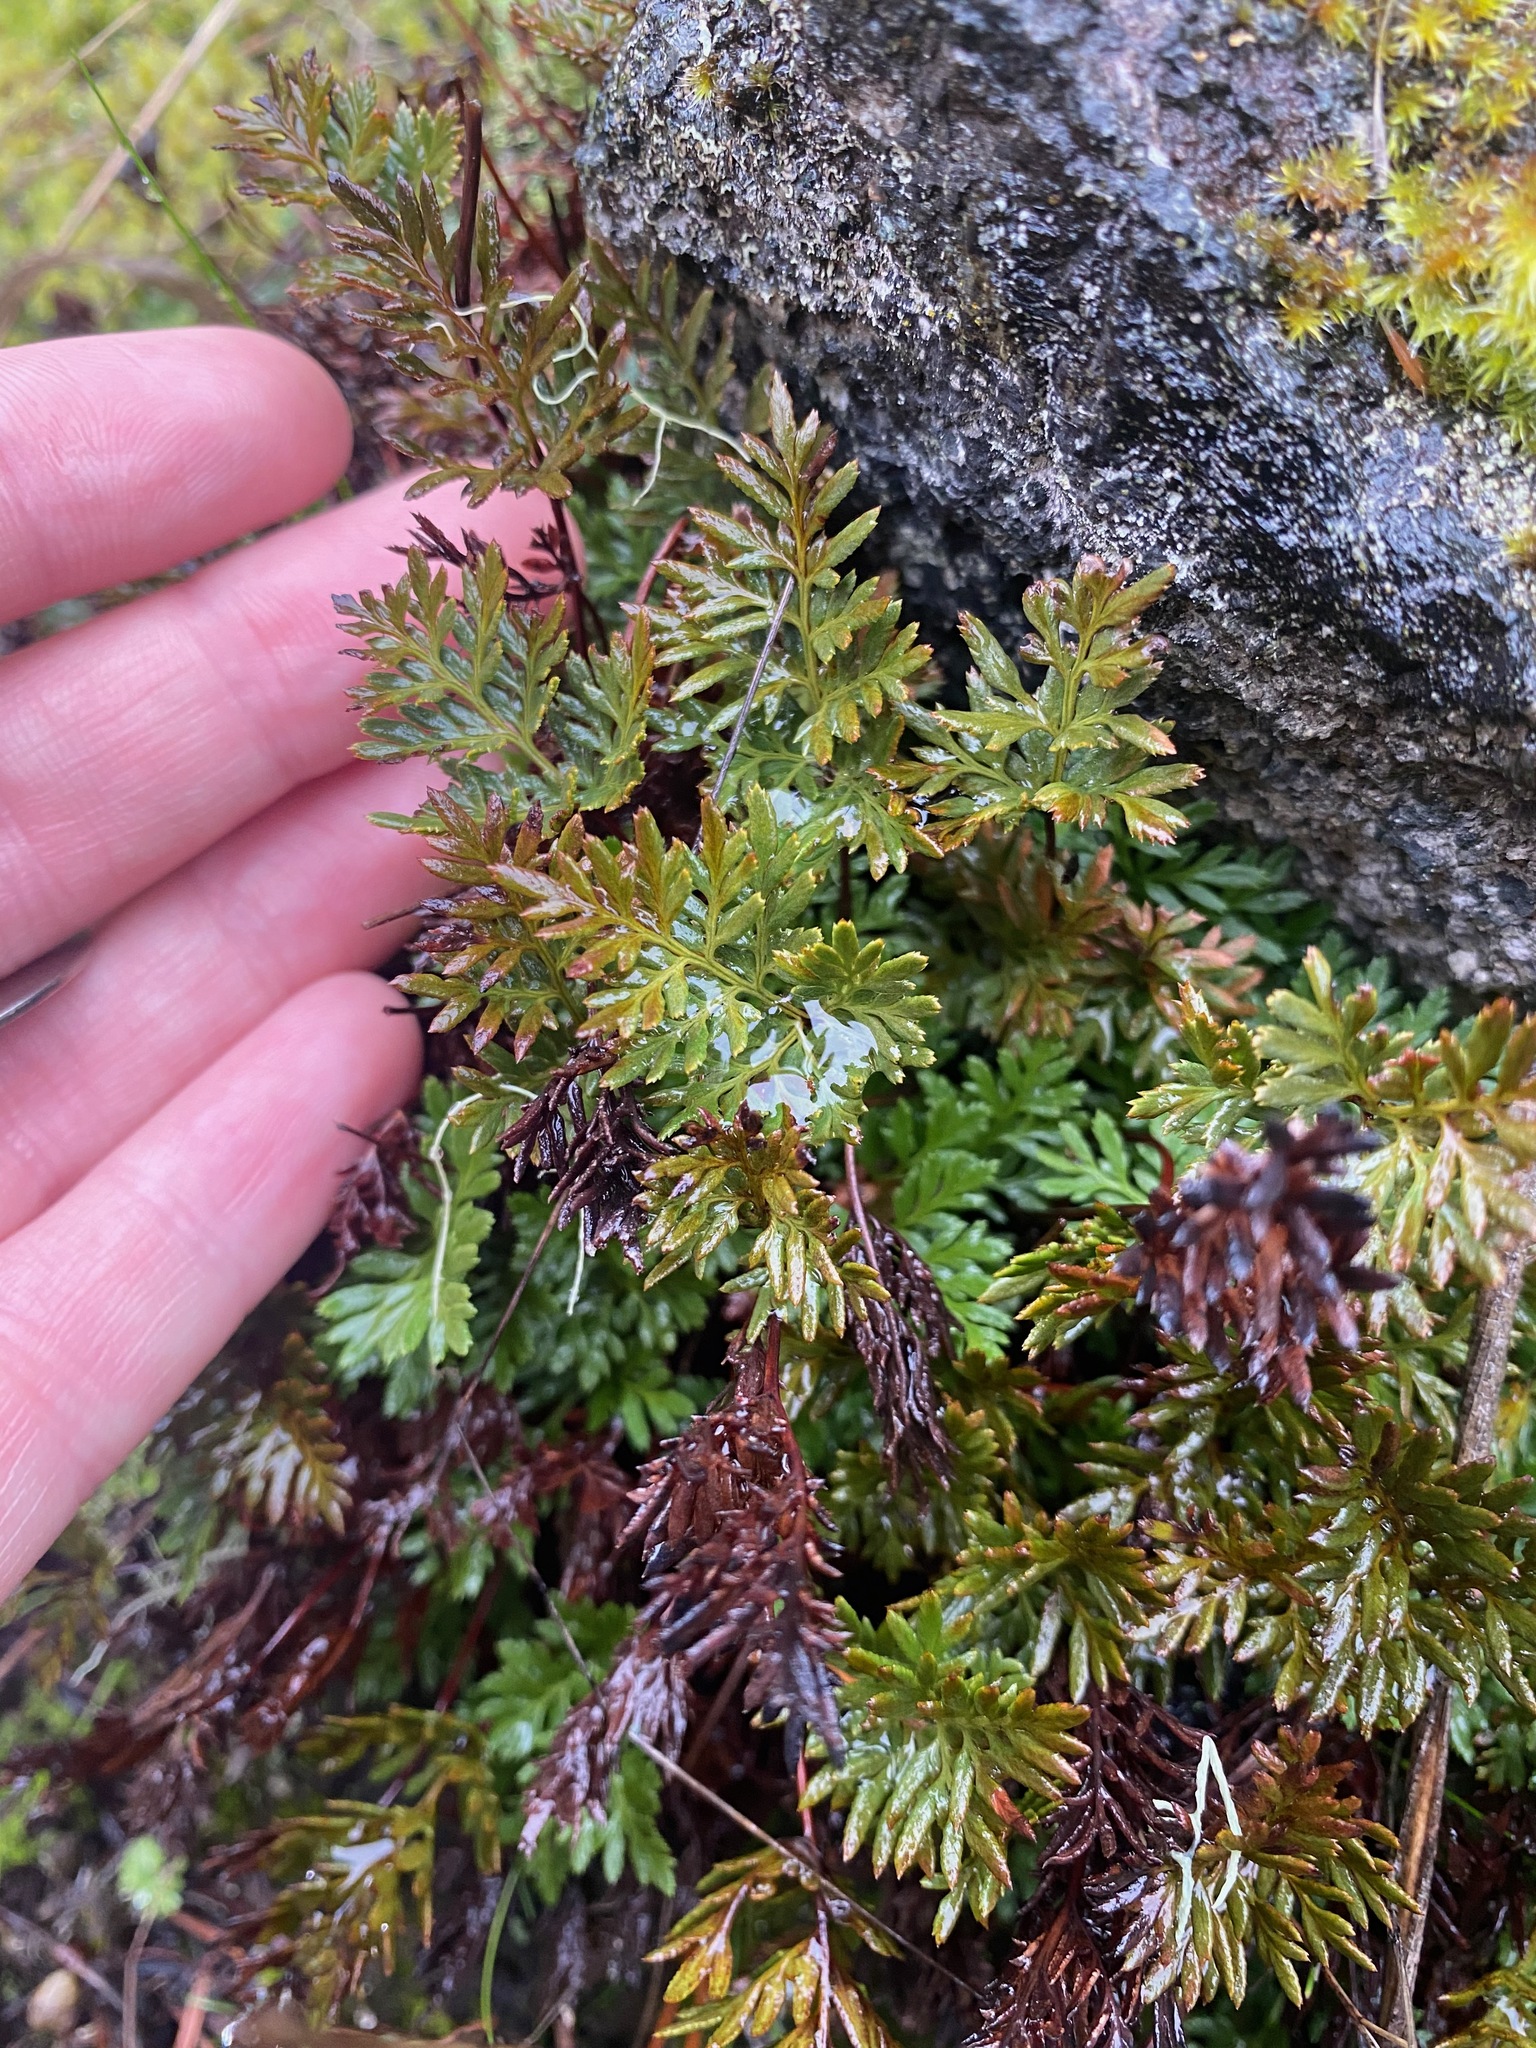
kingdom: Plantae
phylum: Tracheophyta
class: Polypodiopsida
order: Polypodiales
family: Pteridaceae
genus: Aspidotis
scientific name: Aspidotis densa
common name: Indian's dream
